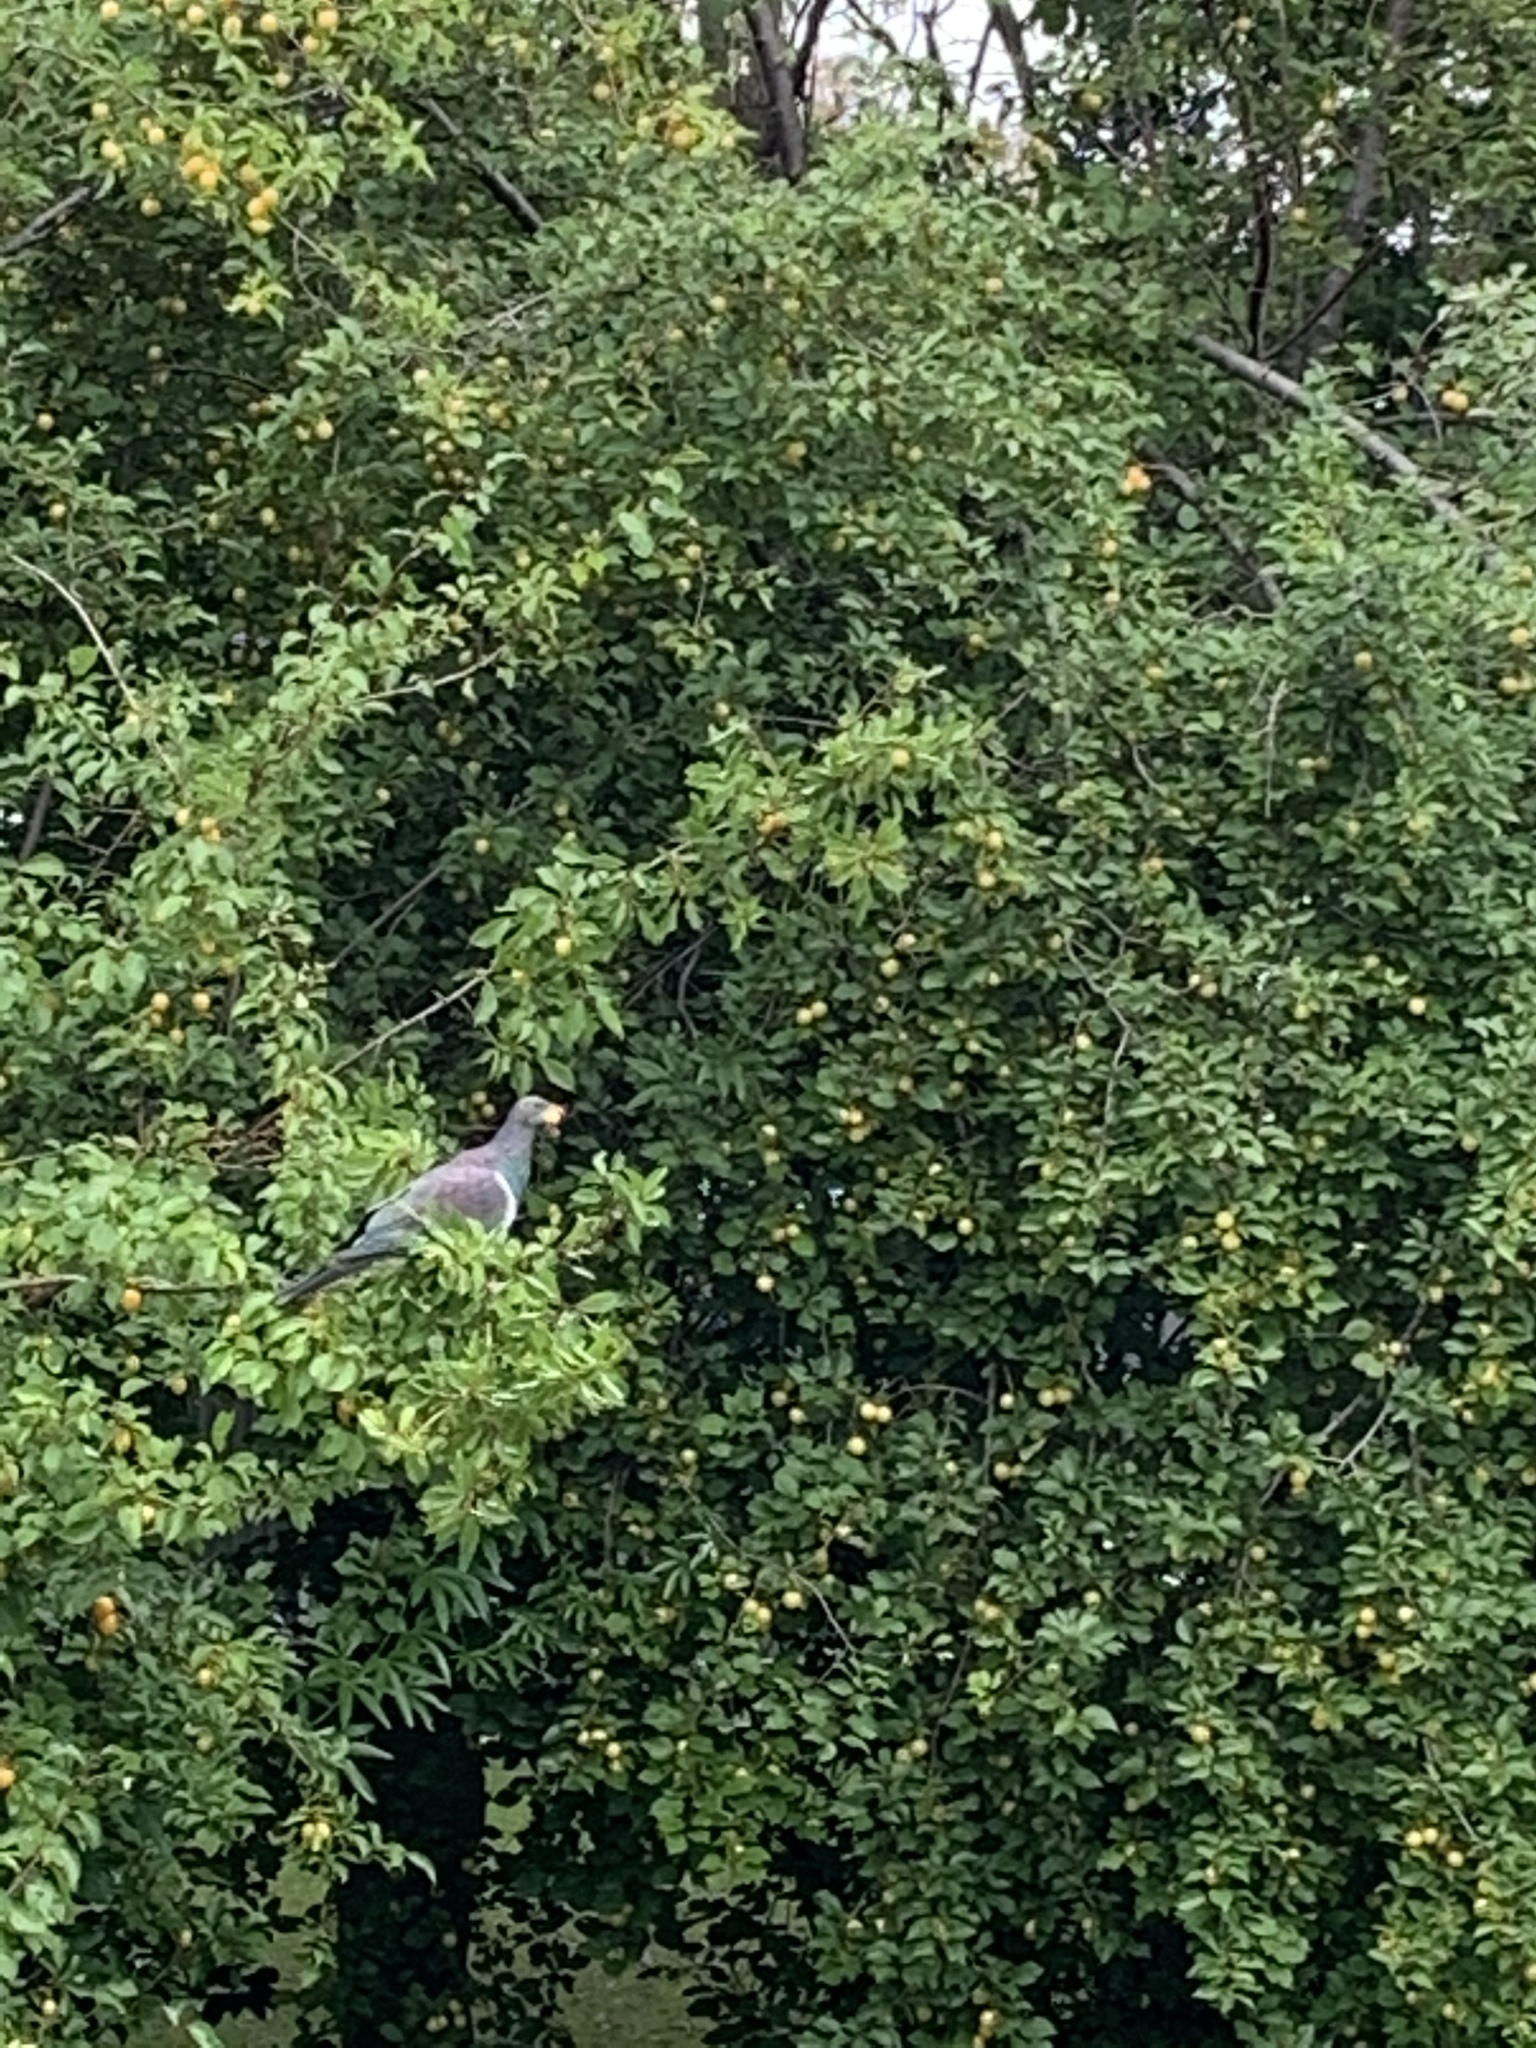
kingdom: Animalia
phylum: Chordata
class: Aves
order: Columbiformes
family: Columbidae
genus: Hemiphaga
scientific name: Hemiphaga novaeseelandiae
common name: New zealand pigeon
